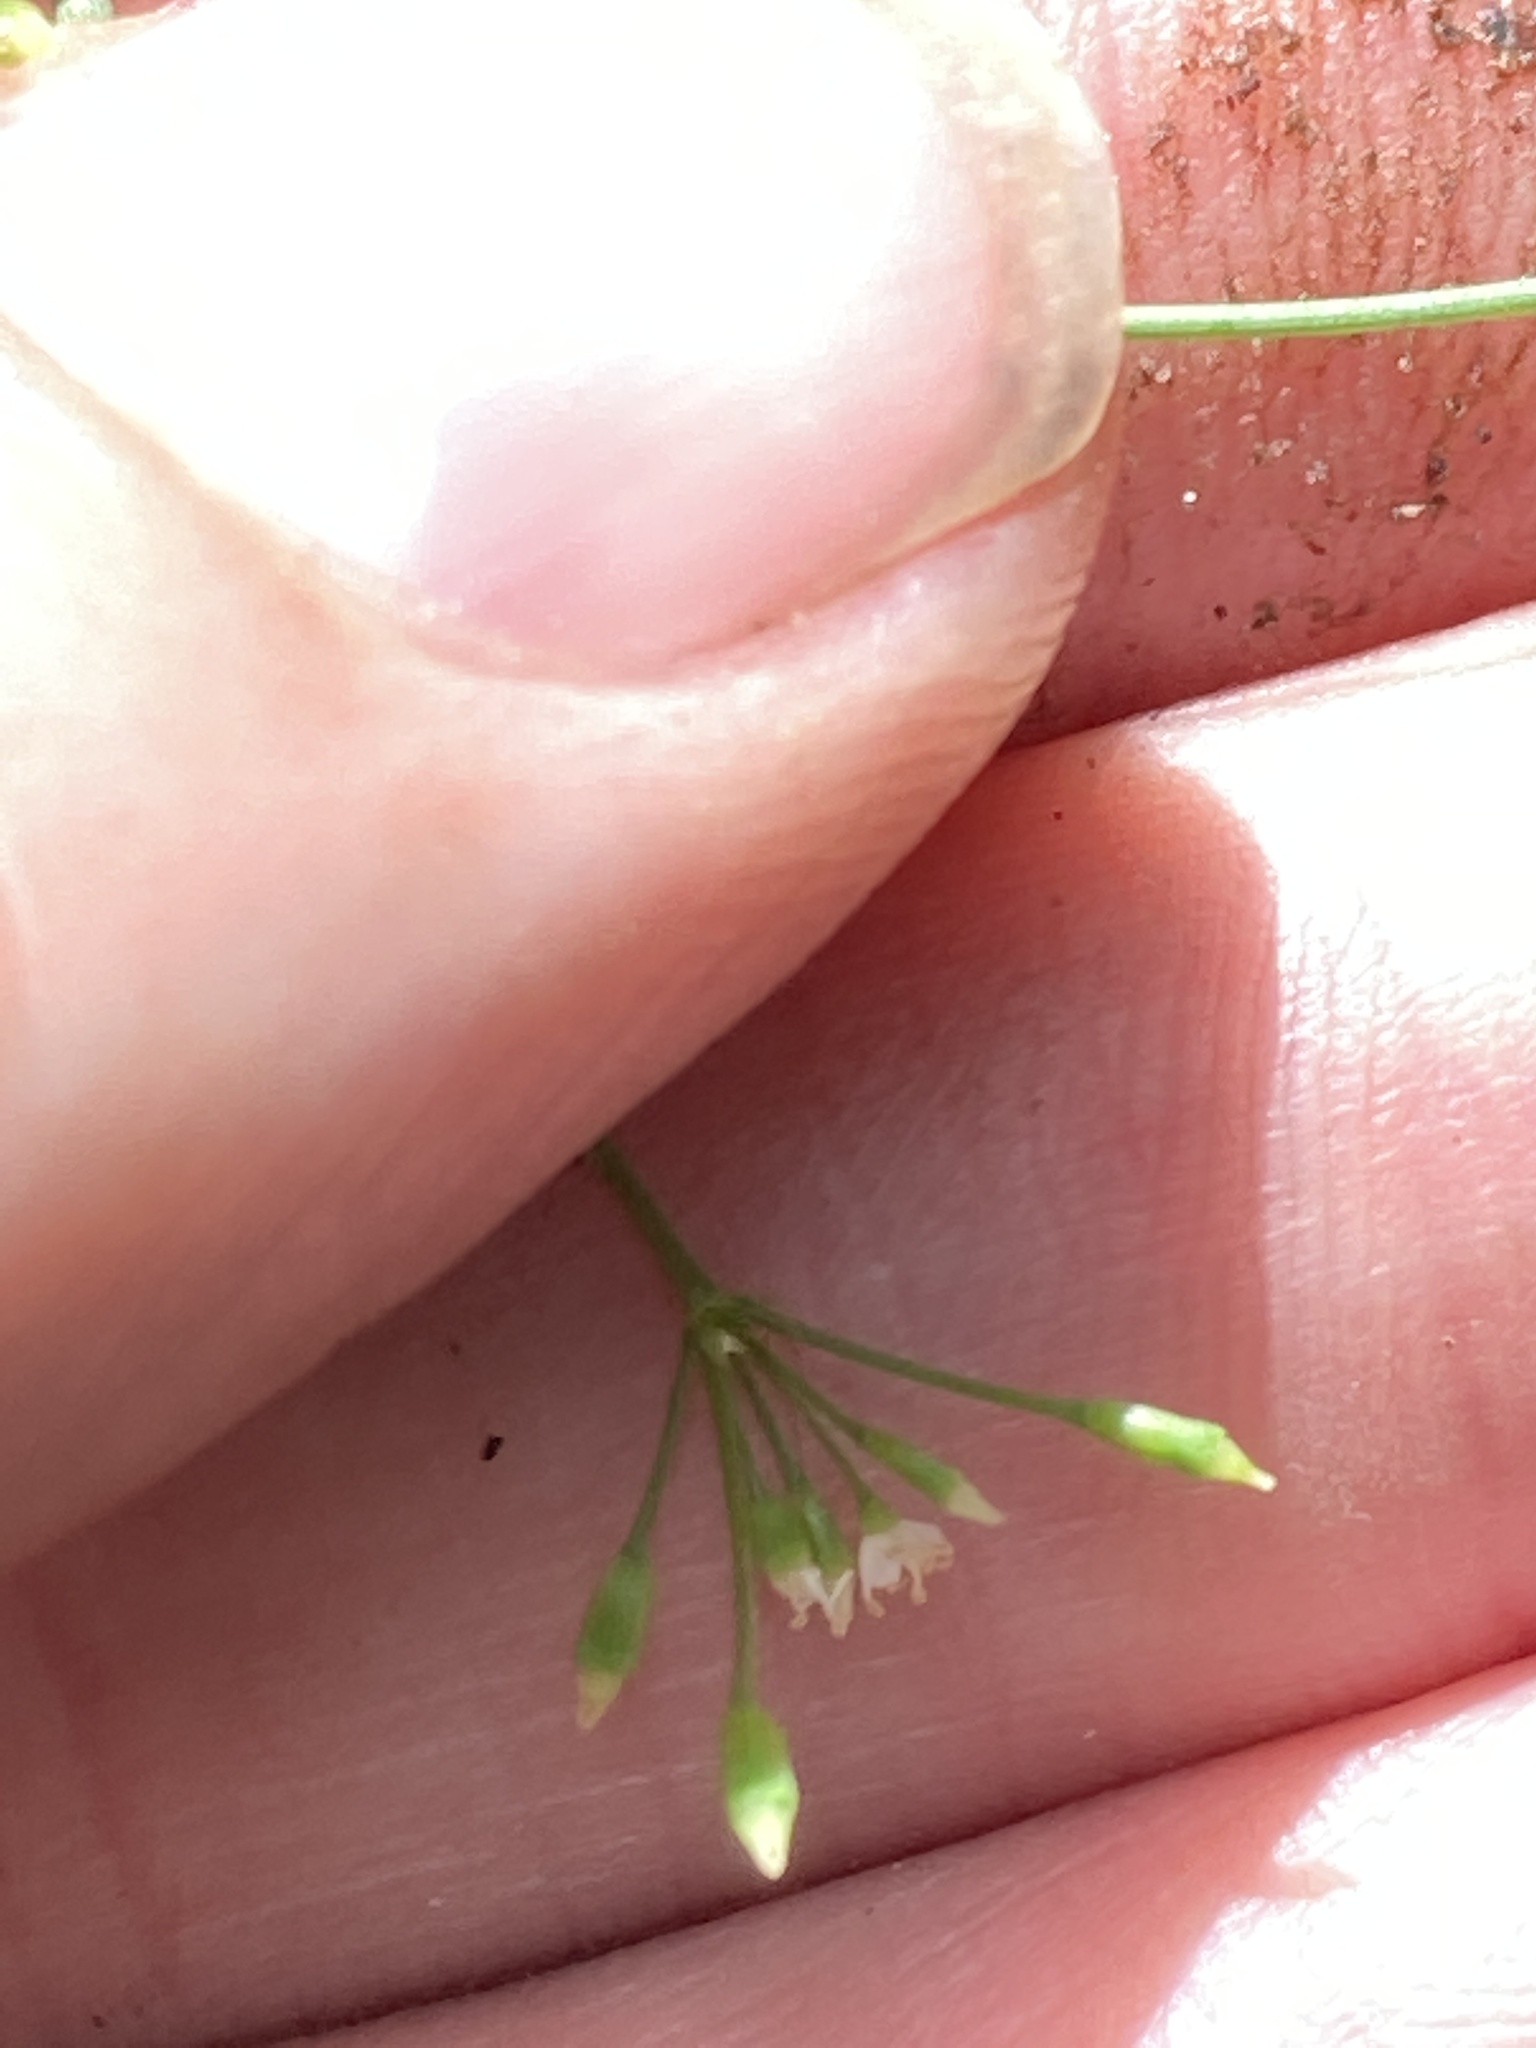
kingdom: Plantae
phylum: Tracheophyta
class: Magnoliopsida
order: Apiales
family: Apiaceae
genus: Cryptotaenia
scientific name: Cryptotaenia canadensis
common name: Honewort
